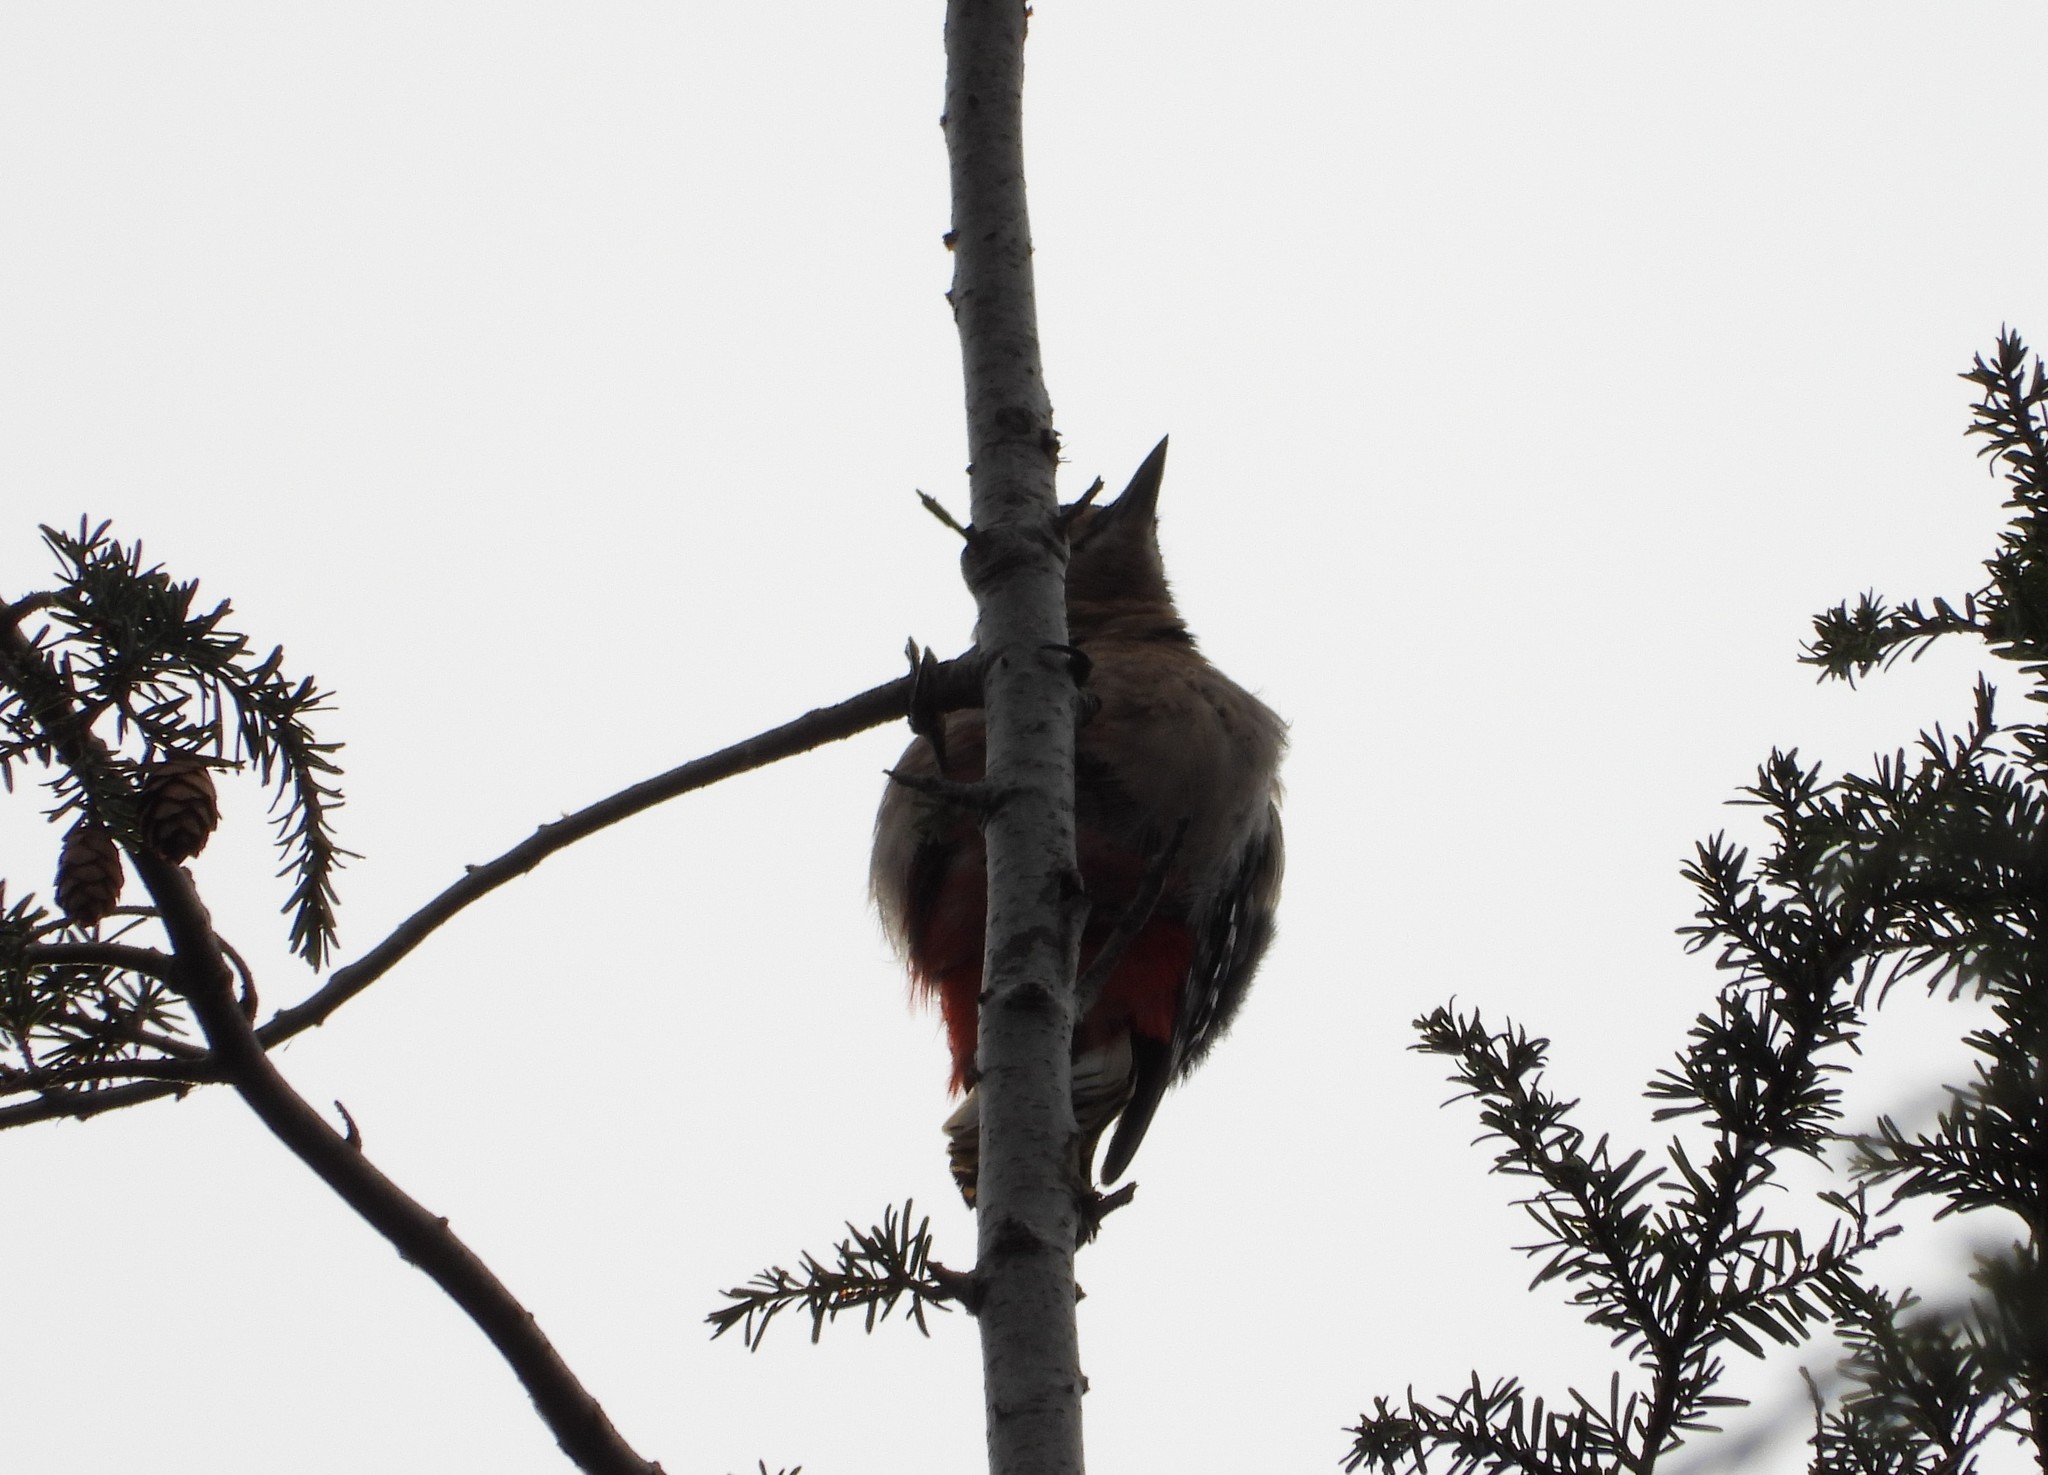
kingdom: Animalia
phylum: Chordata
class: Aves
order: Piciformes
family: Picidae
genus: Dendrocopos
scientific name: Dendrocopos major
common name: Great spotted woodpecker
